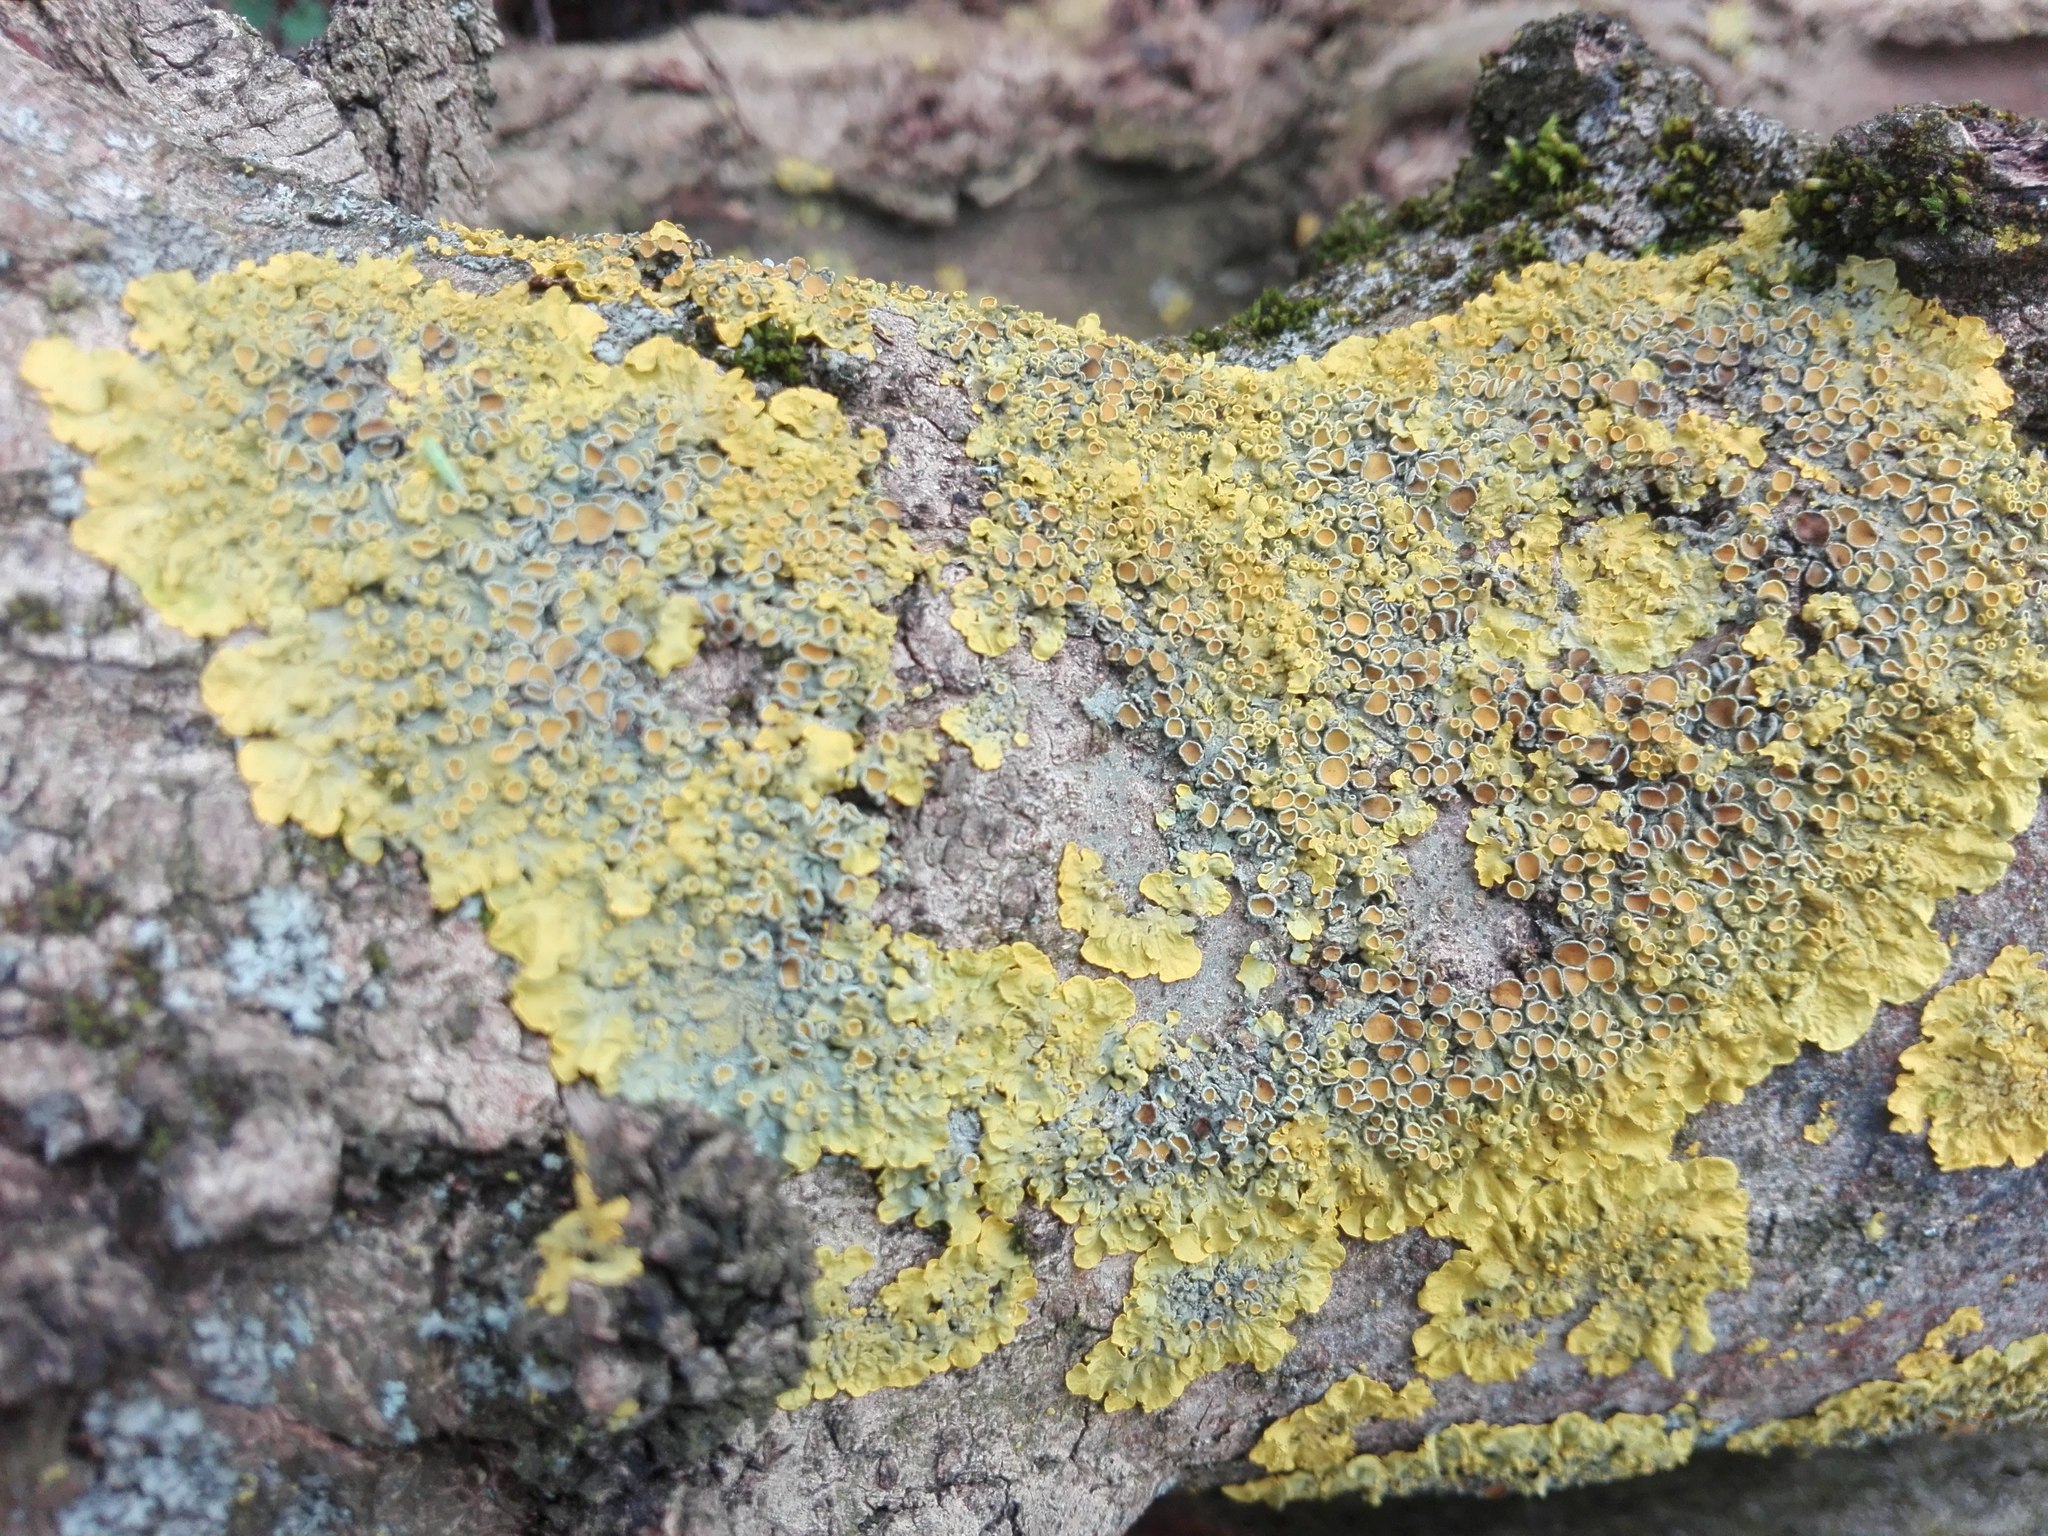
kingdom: Fungi
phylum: Ascomycota
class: Lecanoromycetes
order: Teloschistales
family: Teloschistaceae
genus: Xanthoria
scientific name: Xanthoria parietina
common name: Common orange lichen
